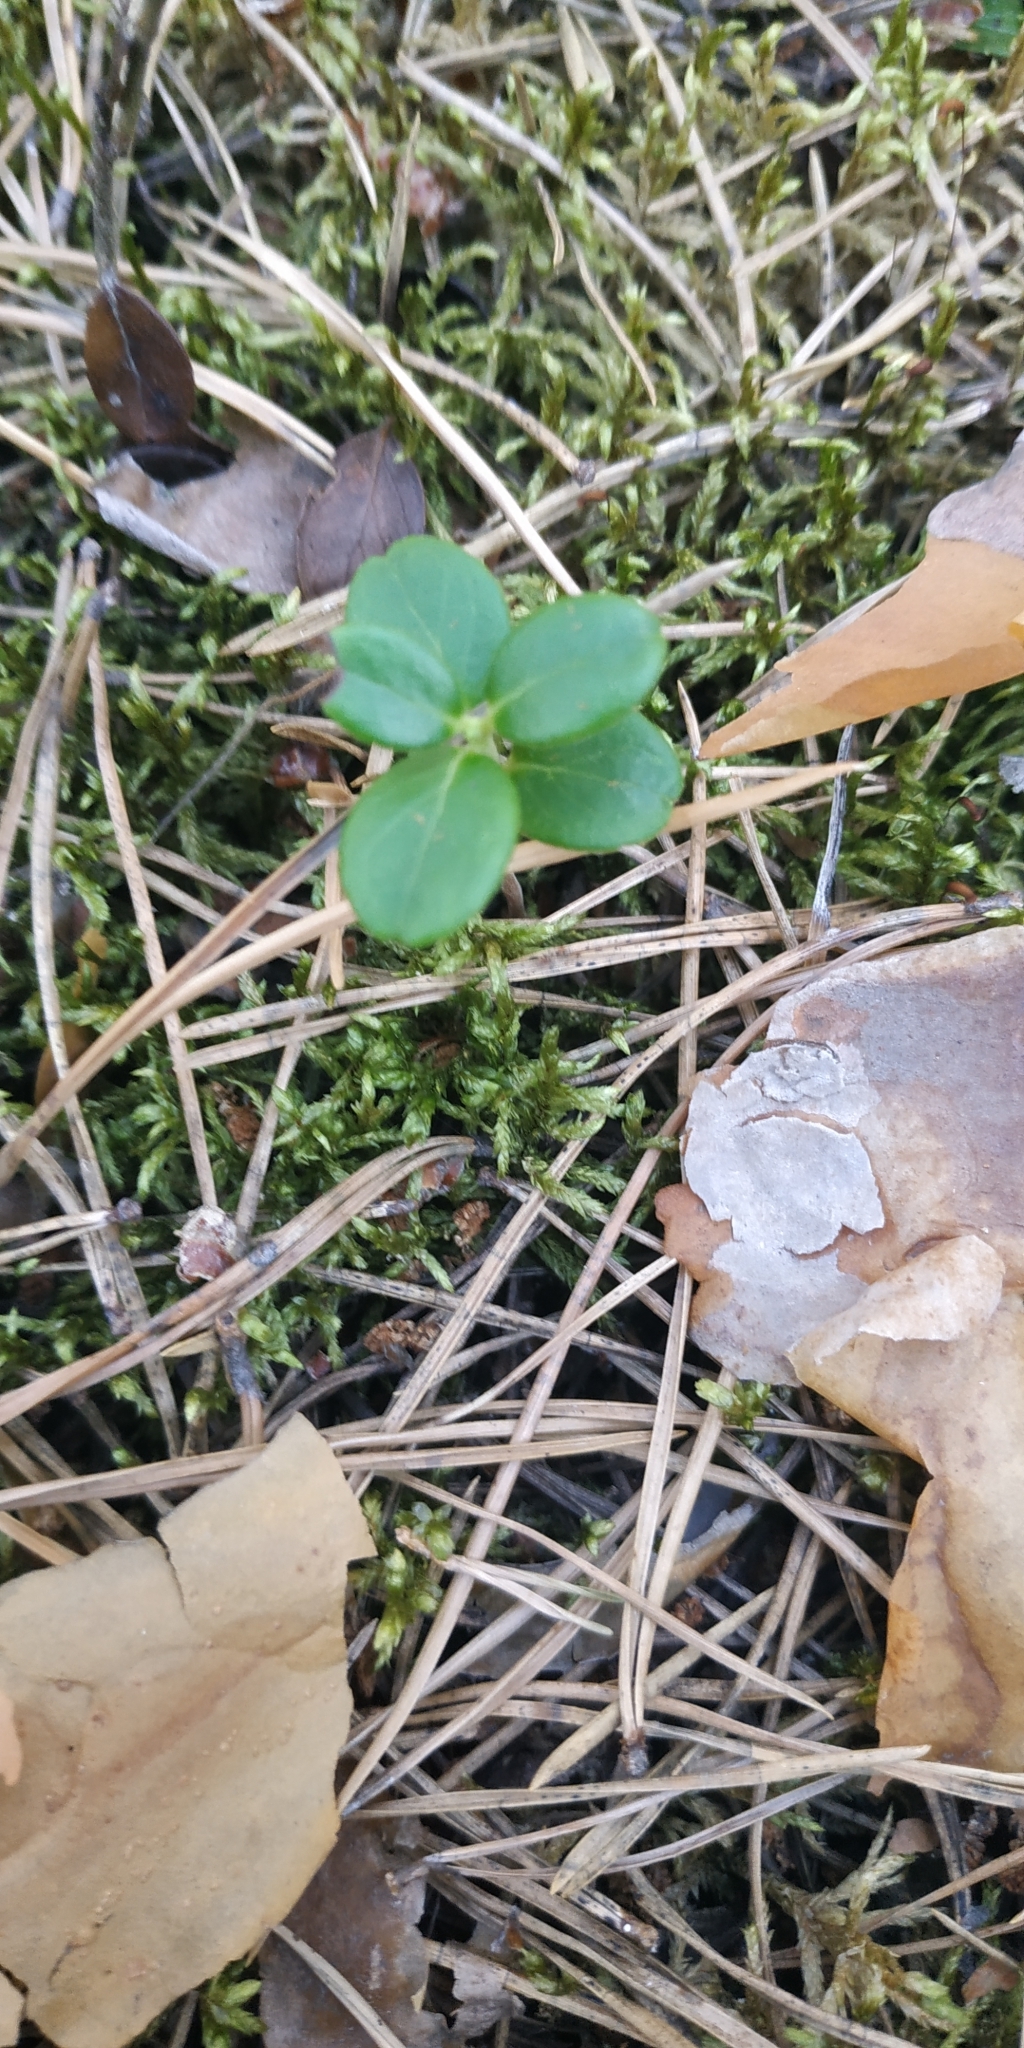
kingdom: Plantae
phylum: Tracheophyta
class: Magnoliopsida
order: Ericales
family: Ericaceae
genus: Vaccinium
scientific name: Vaccinium vitis-idaea
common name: Cowberry
